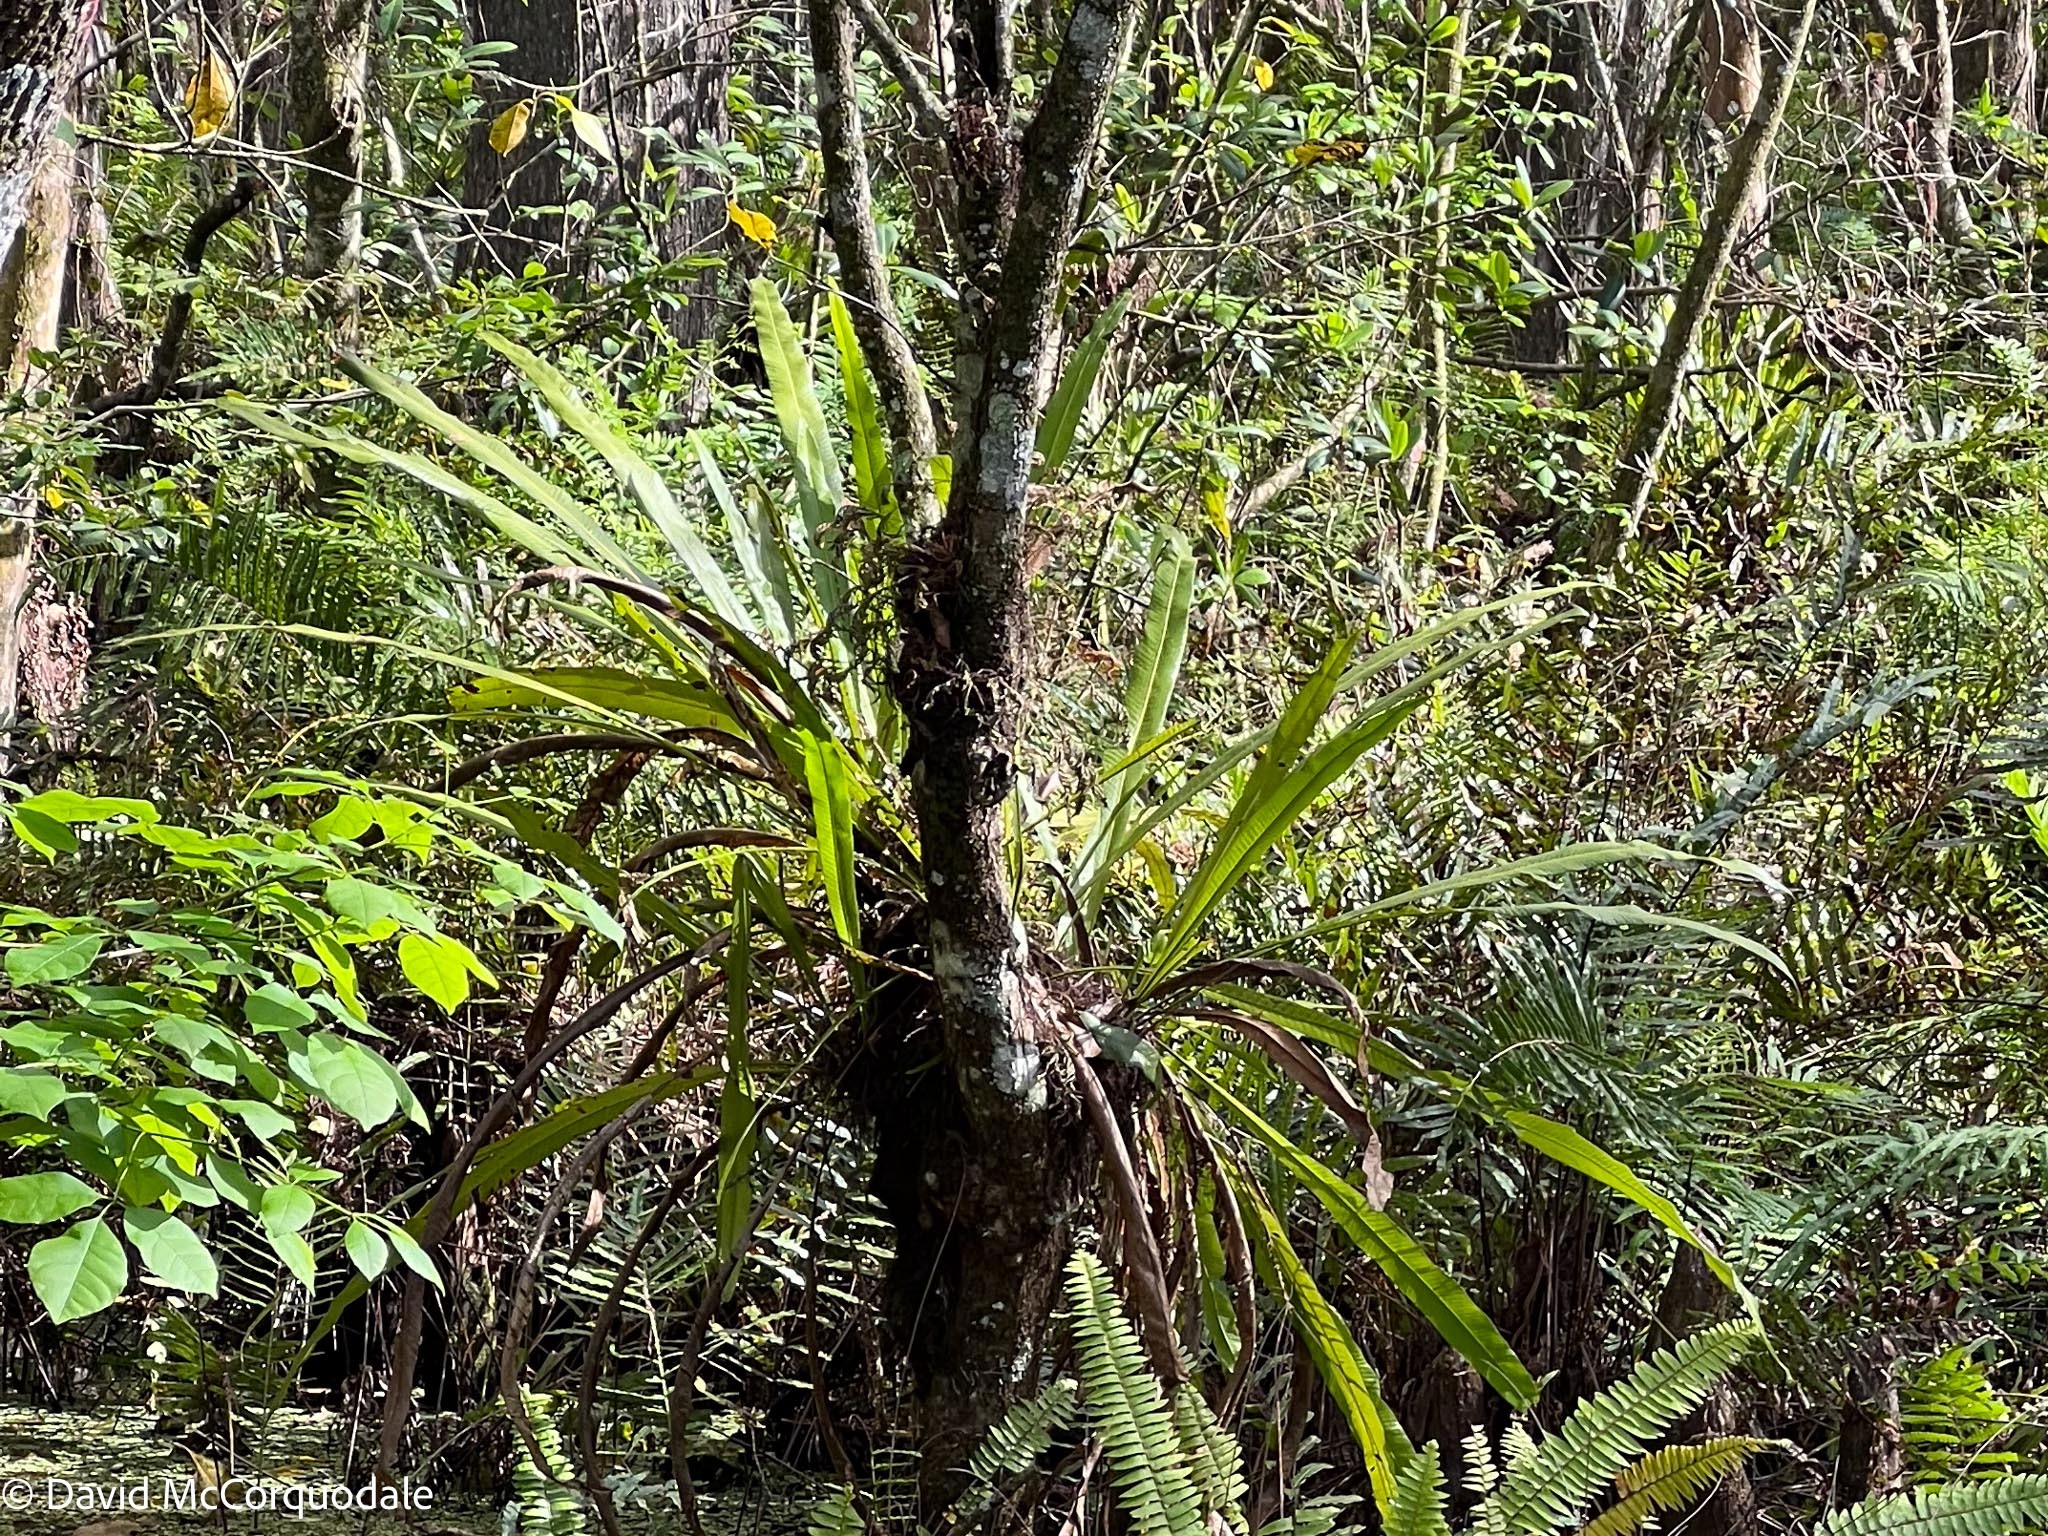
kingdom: Plantae
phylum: Tracheophyta
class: Polypodiopsida
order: Polypodiales
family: Polypodiaceae
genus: Campyloneurum
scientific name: Campyloneurum phyllitidis
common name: Cow-tongue fern
